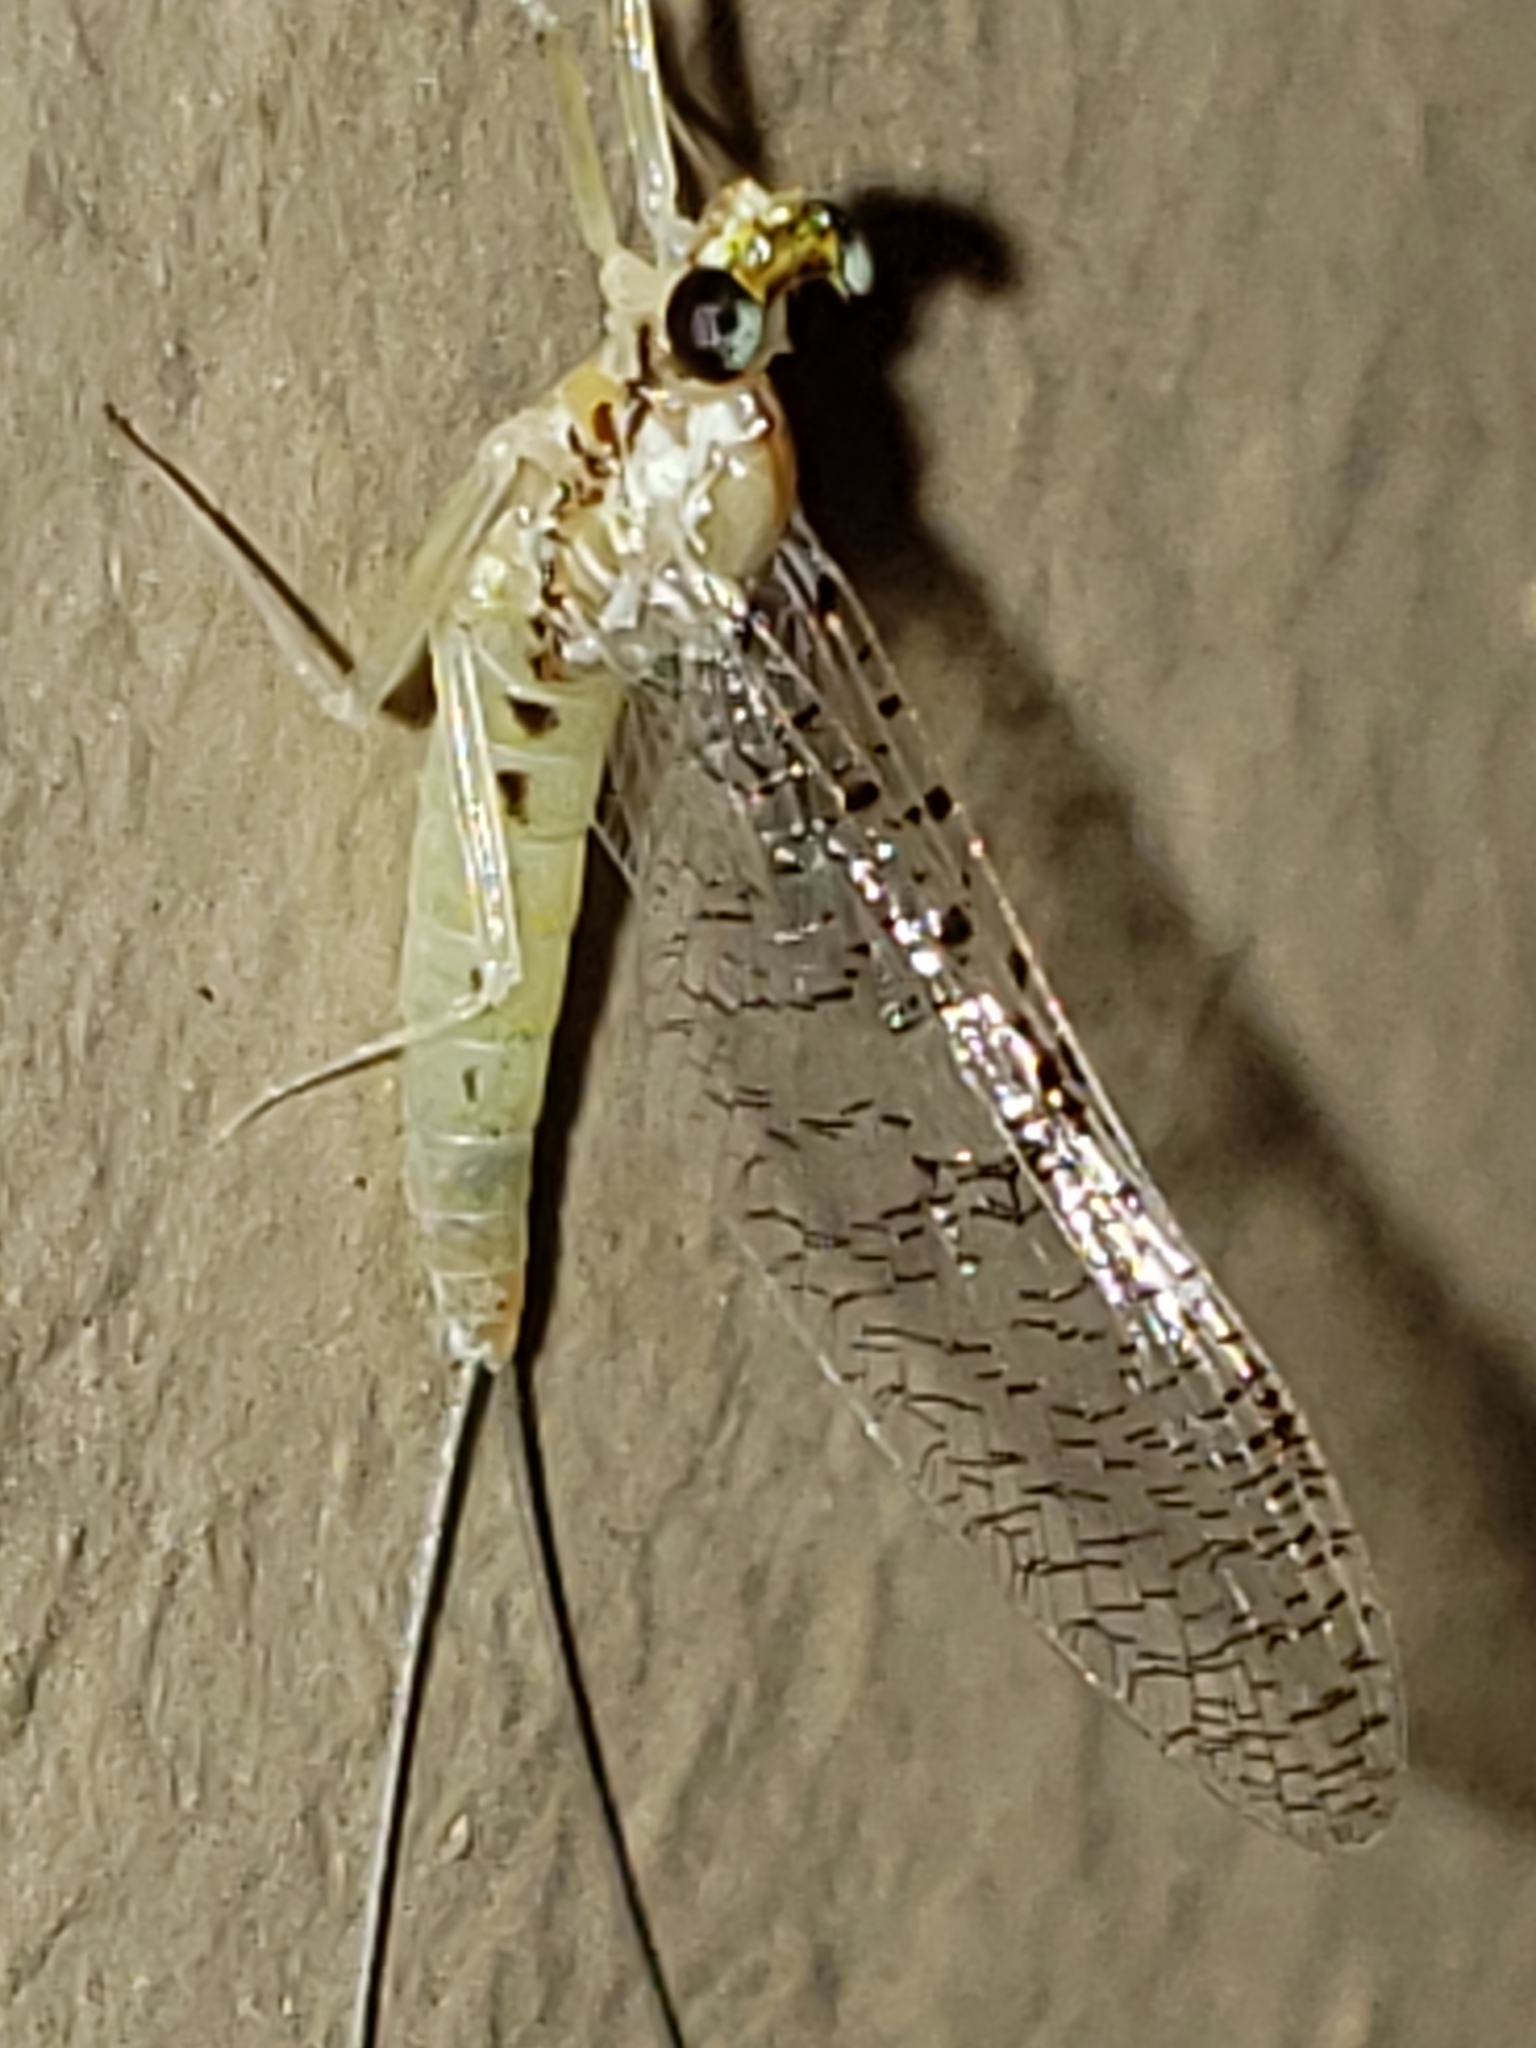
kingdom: Animalia
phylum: Arthropoda
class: Insecta
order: Ephemeroptera
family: Heptageniidae
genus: Leucrocuta
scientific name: Leucrocuta hebe
